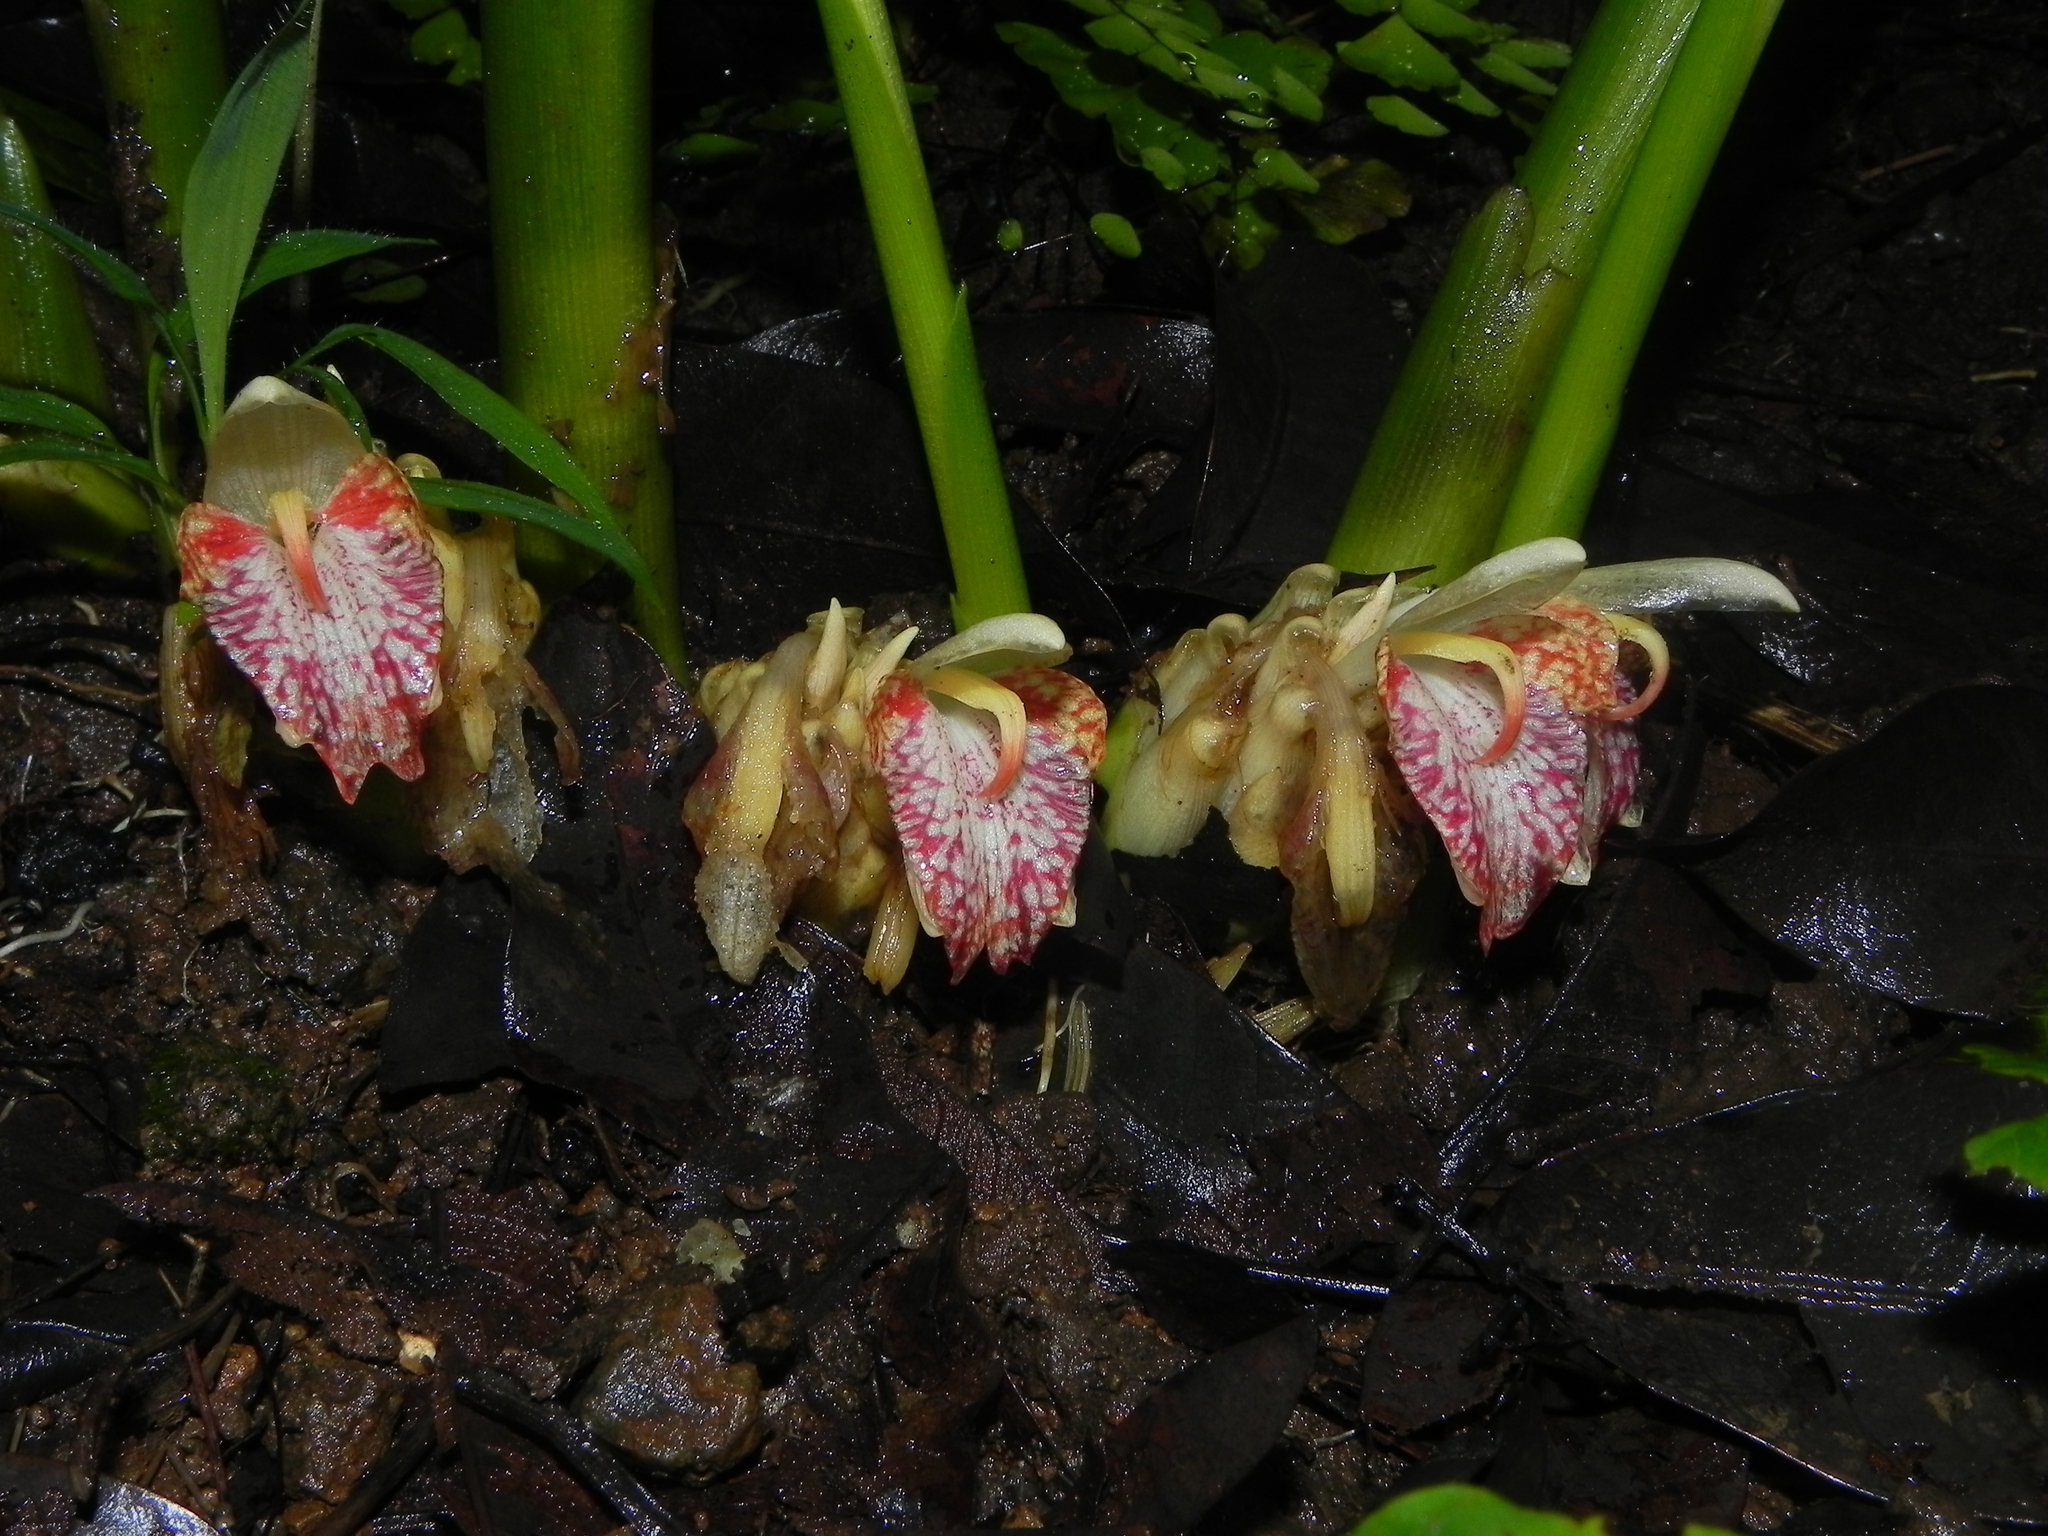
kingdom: Plantae
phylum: Tracheophyta
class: Liliopsida
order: Zingiberales
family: Zingiberaceae
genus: Zingiber
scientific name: Zingiber nimmonii
